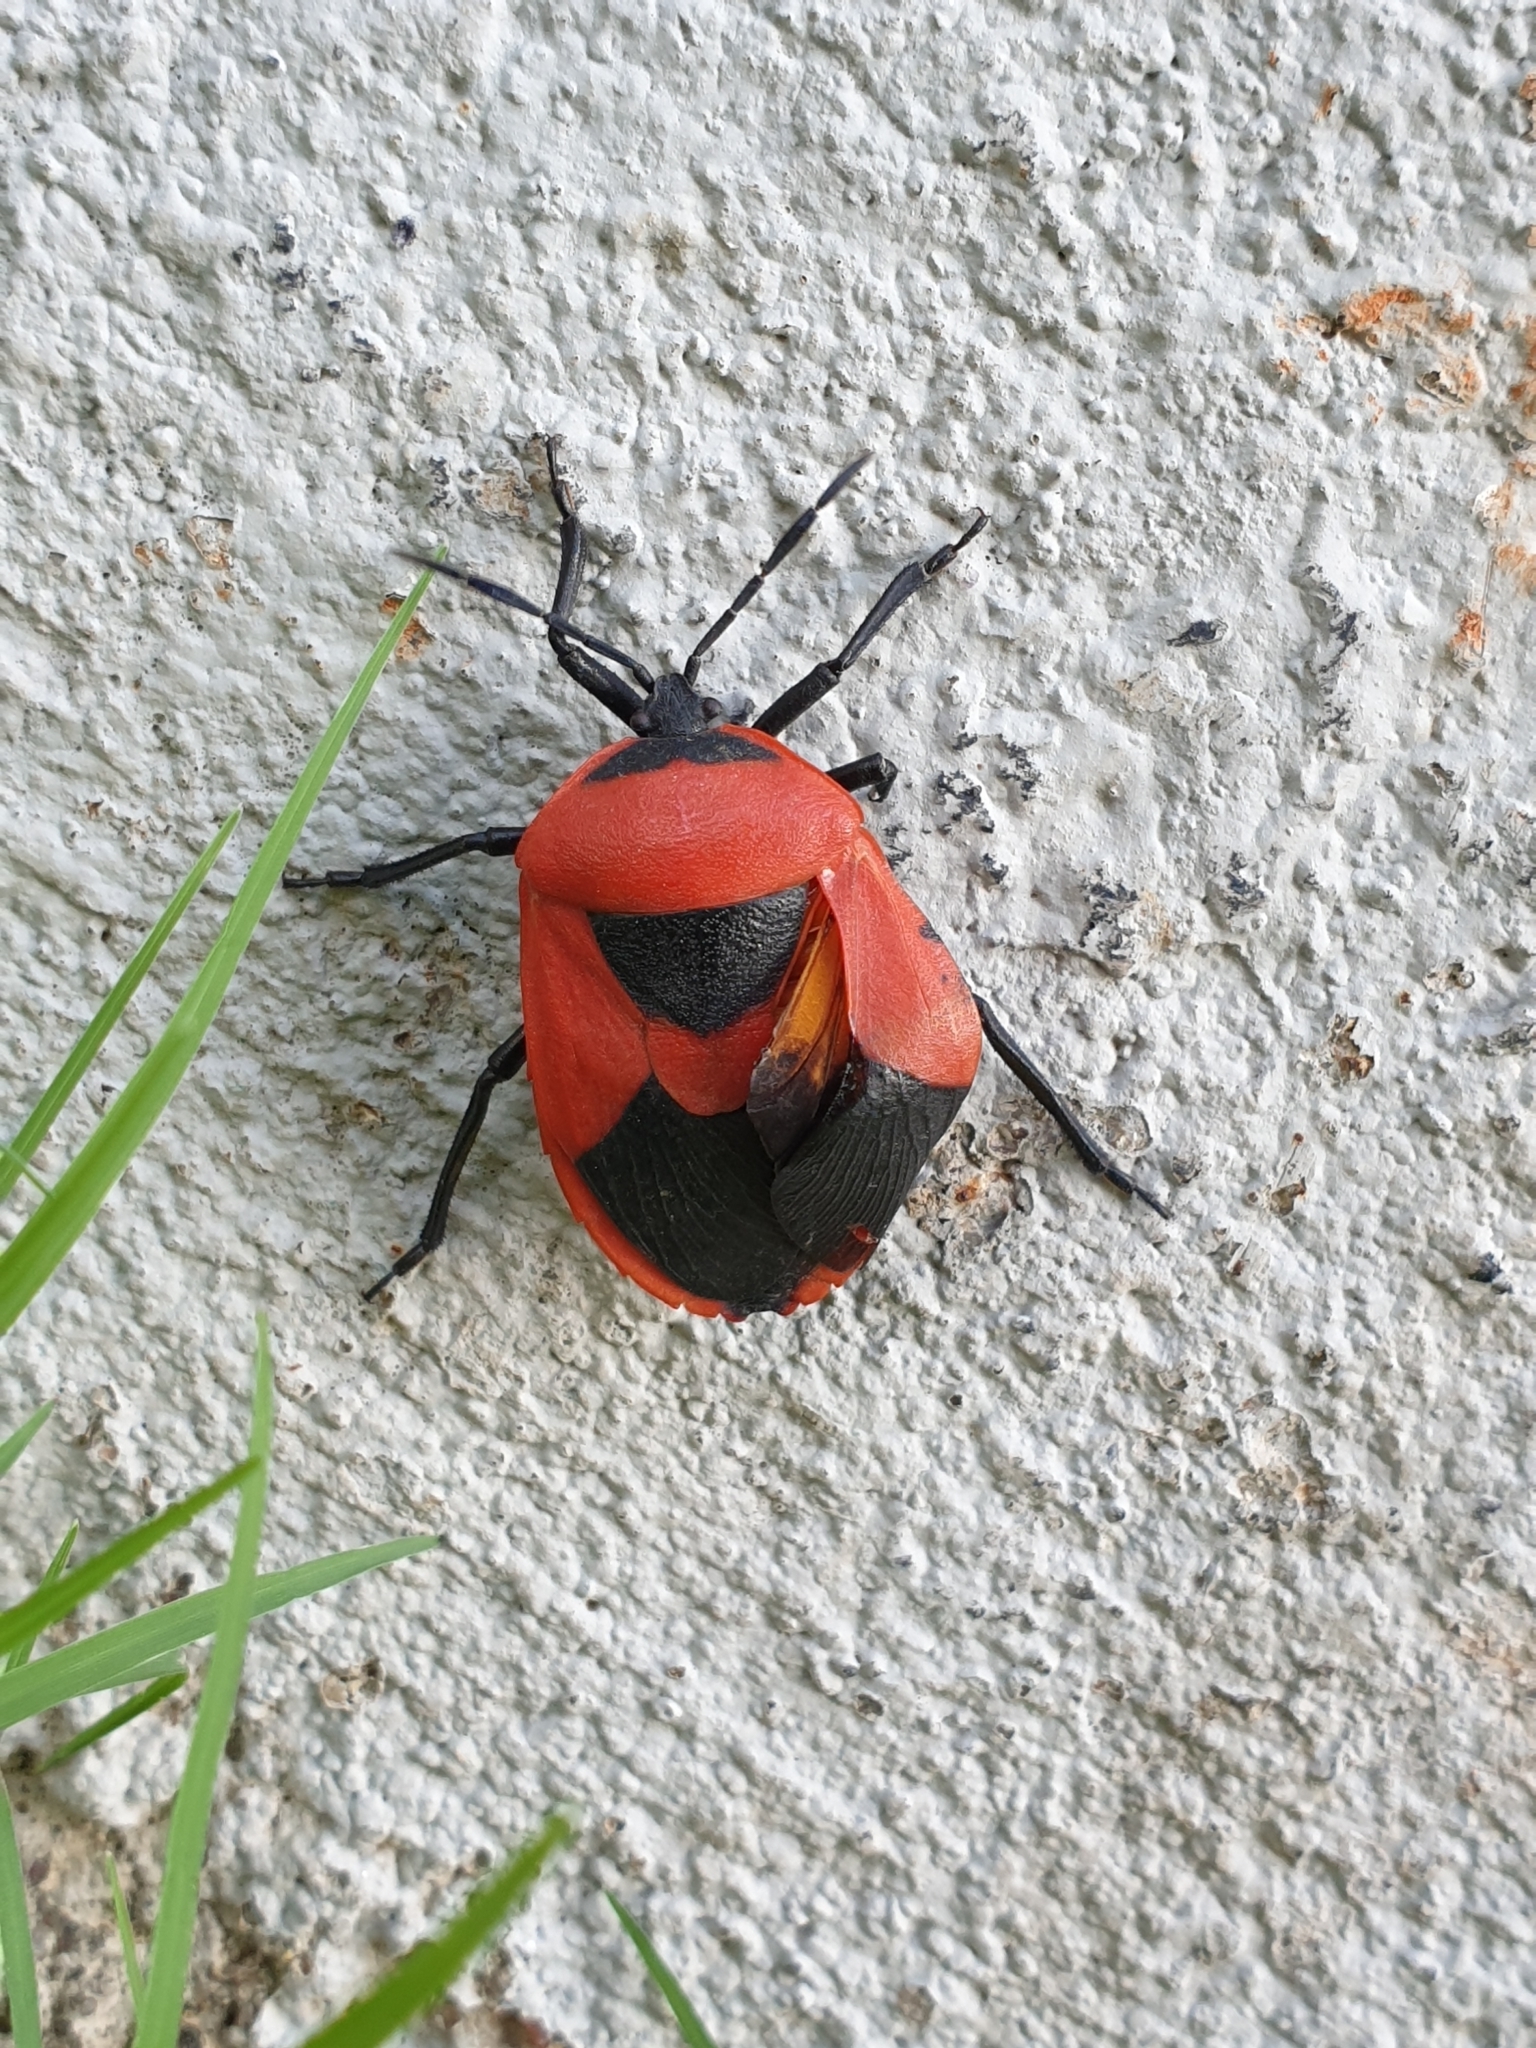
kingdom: Animalia
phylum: Arthropoda
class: Insecta
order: Hemiptera
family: Dinidoridae
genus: Coridius
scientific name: Coridius ianus
